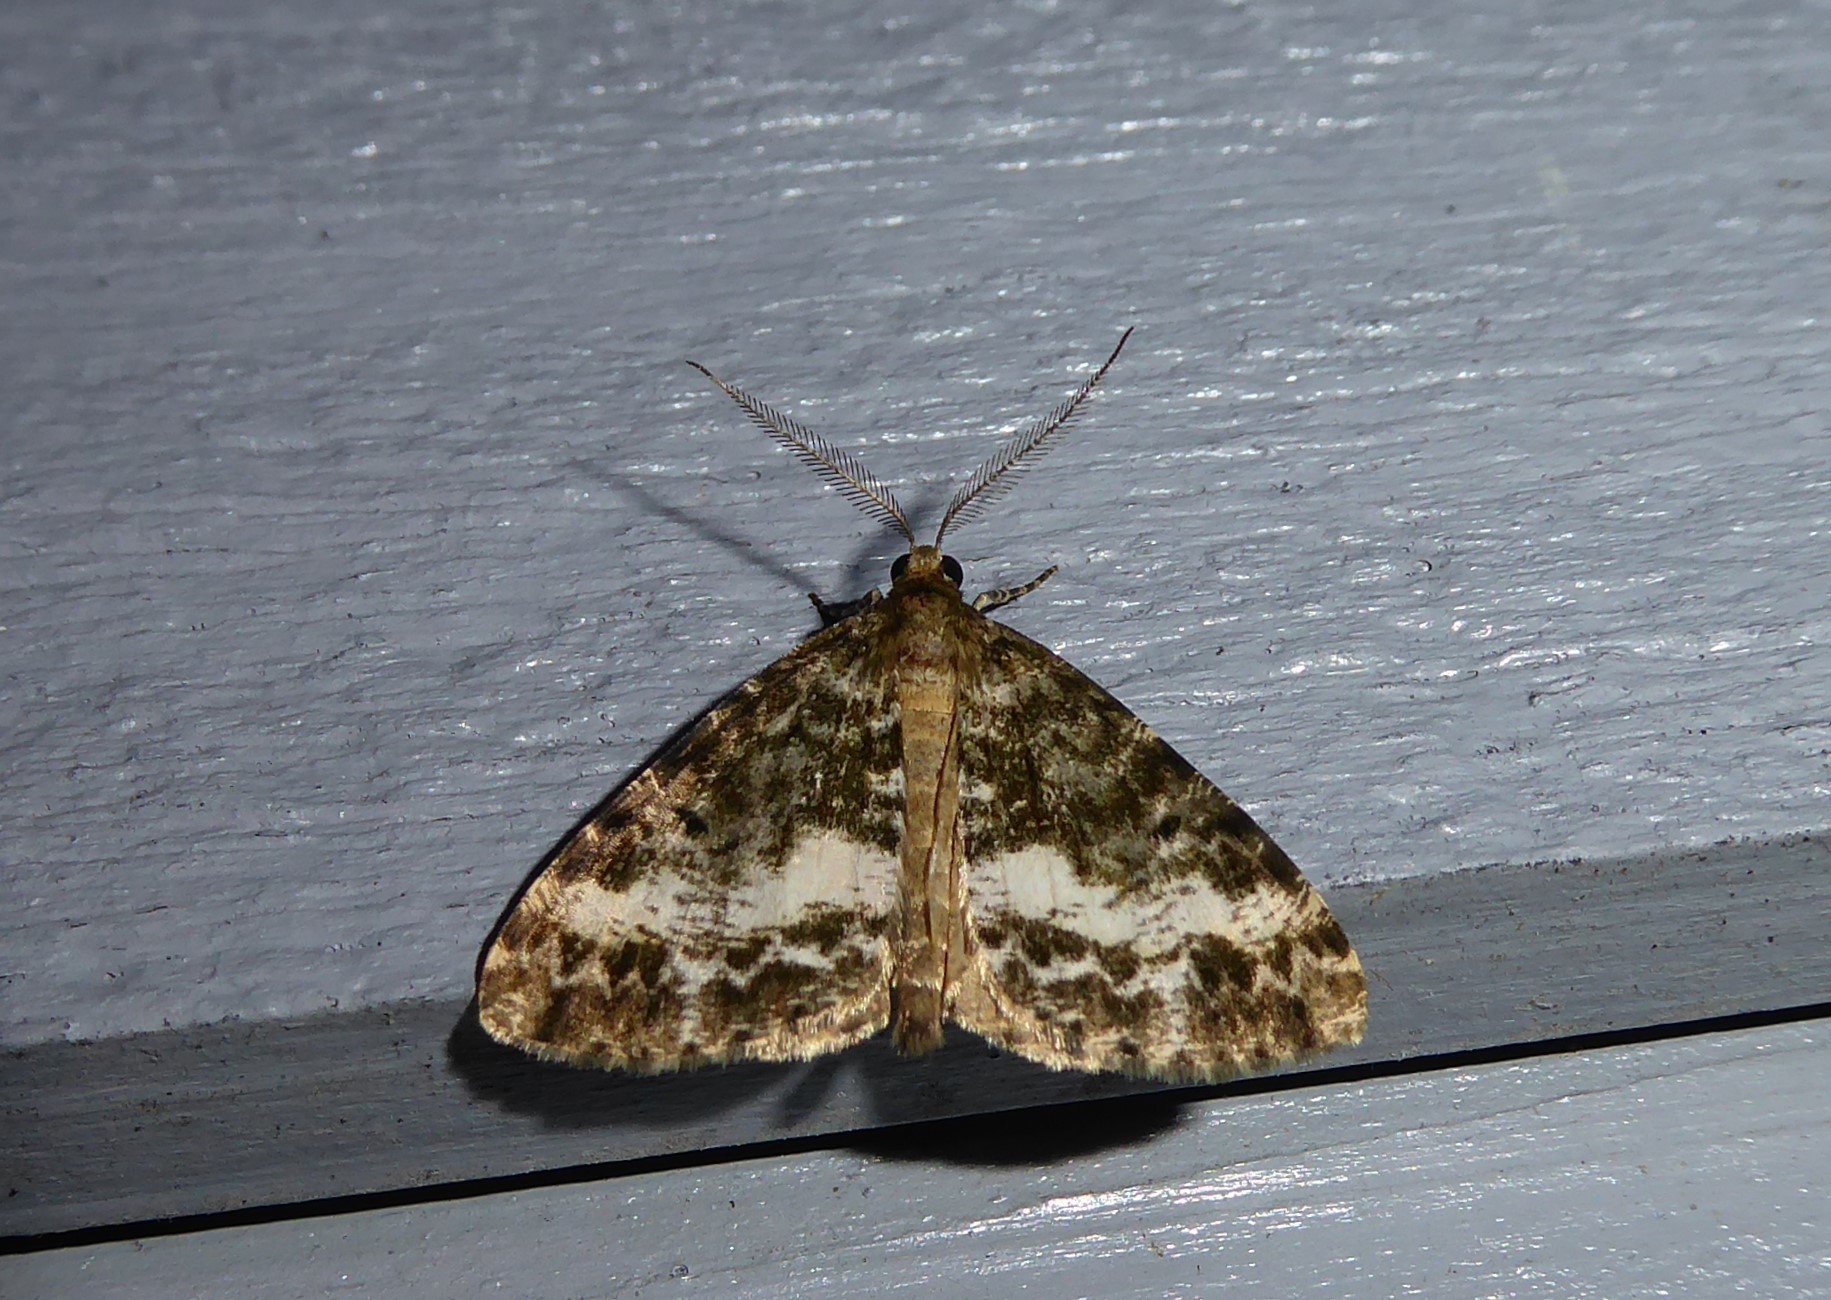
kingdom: Animalia
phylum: Arthropoda
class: Insecta
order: Lepidoptera
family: Geometridae
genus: Pseudocoremia
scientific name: Pseudocoremia lactiflua
